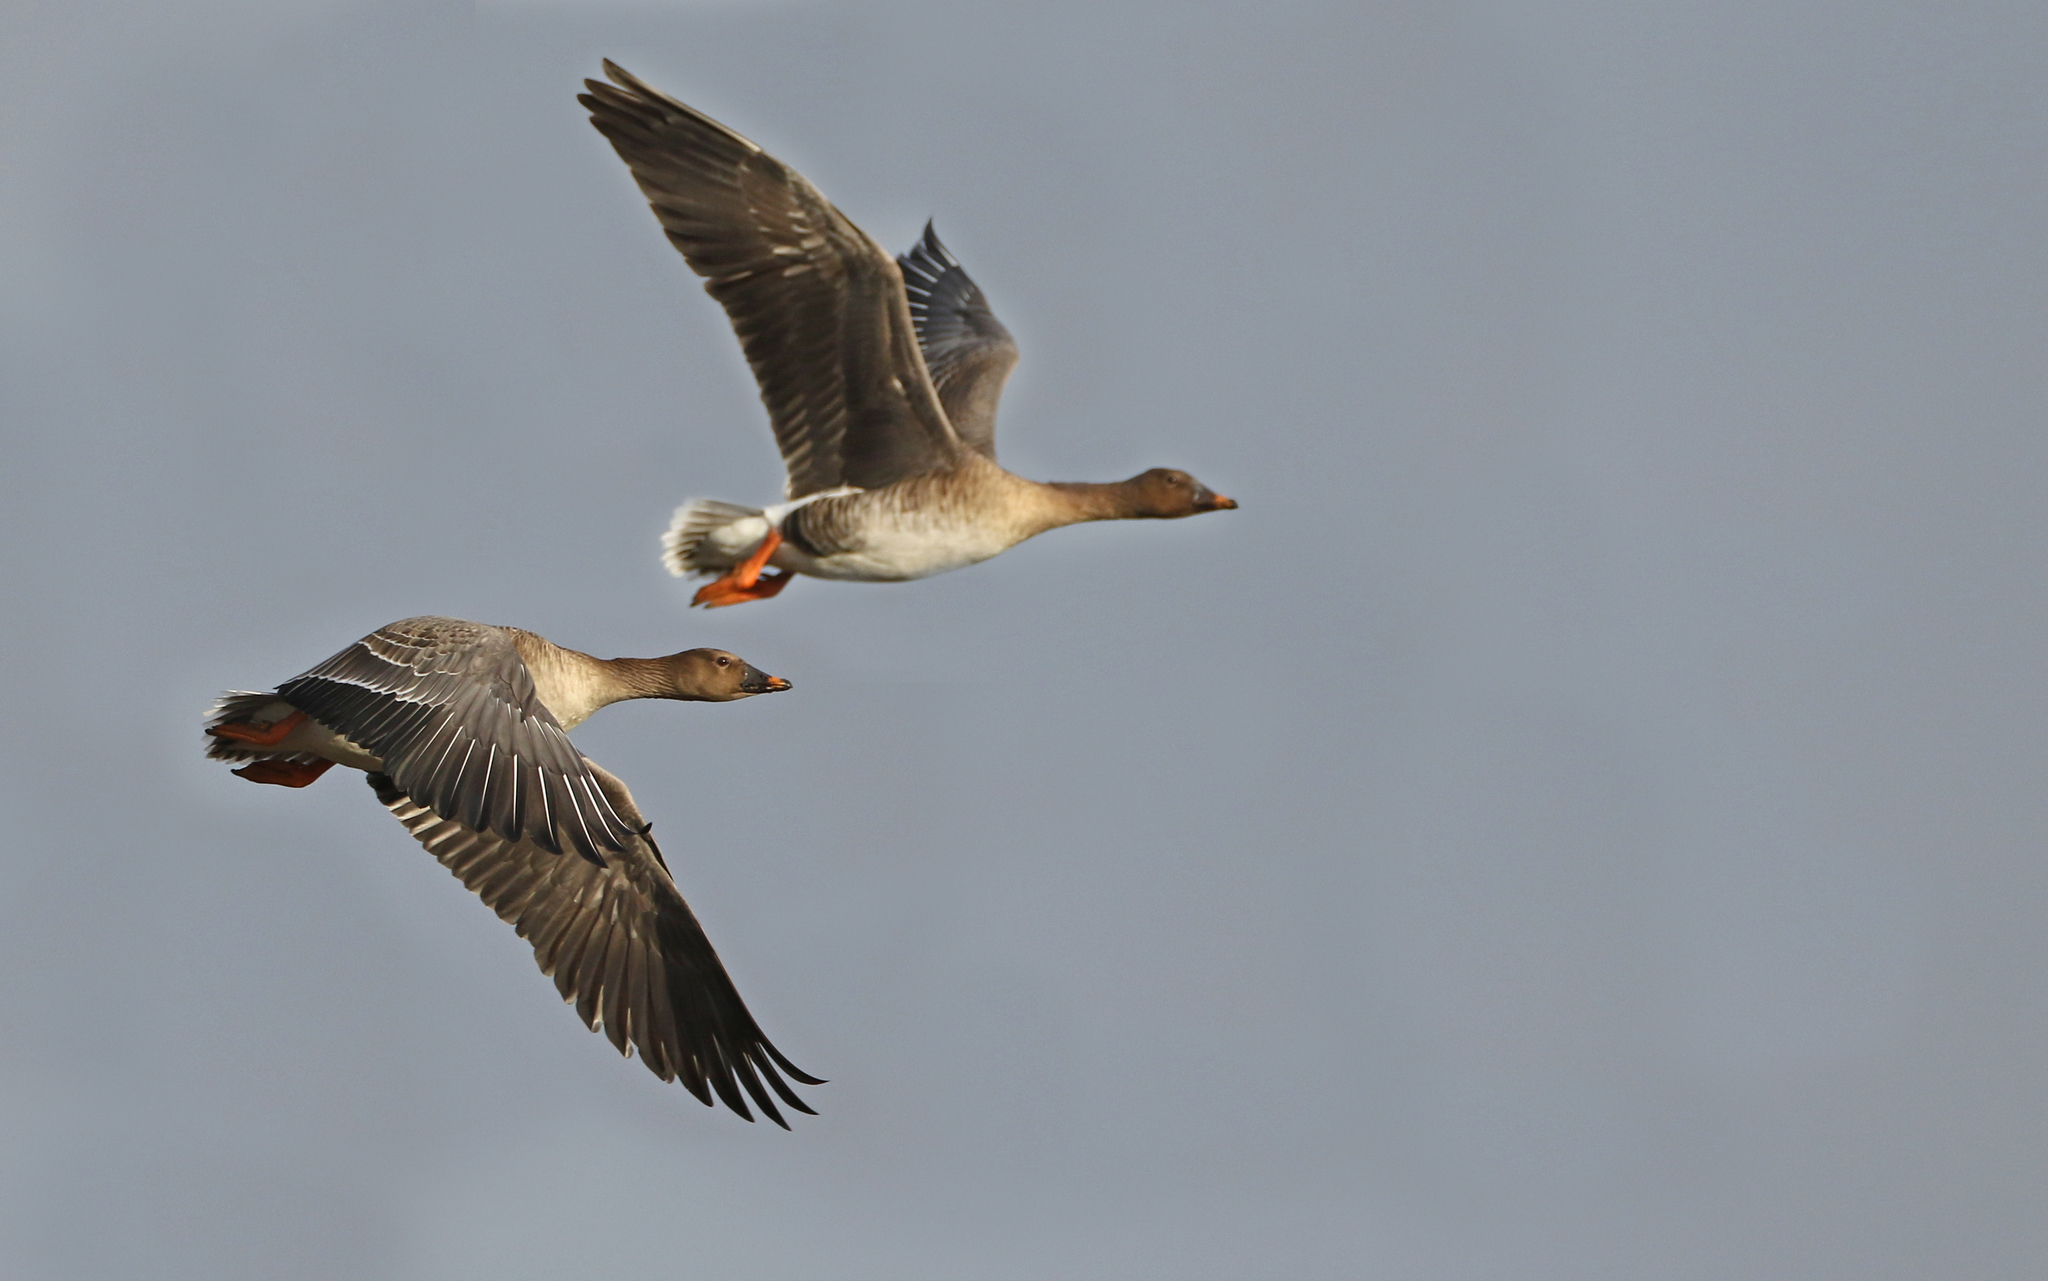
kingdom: Animalia
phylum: Chordata
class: Aves
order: Anseriformes
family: Anatidae
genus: Anser
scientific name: Anser serrirostris
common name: Tundra bean goose
